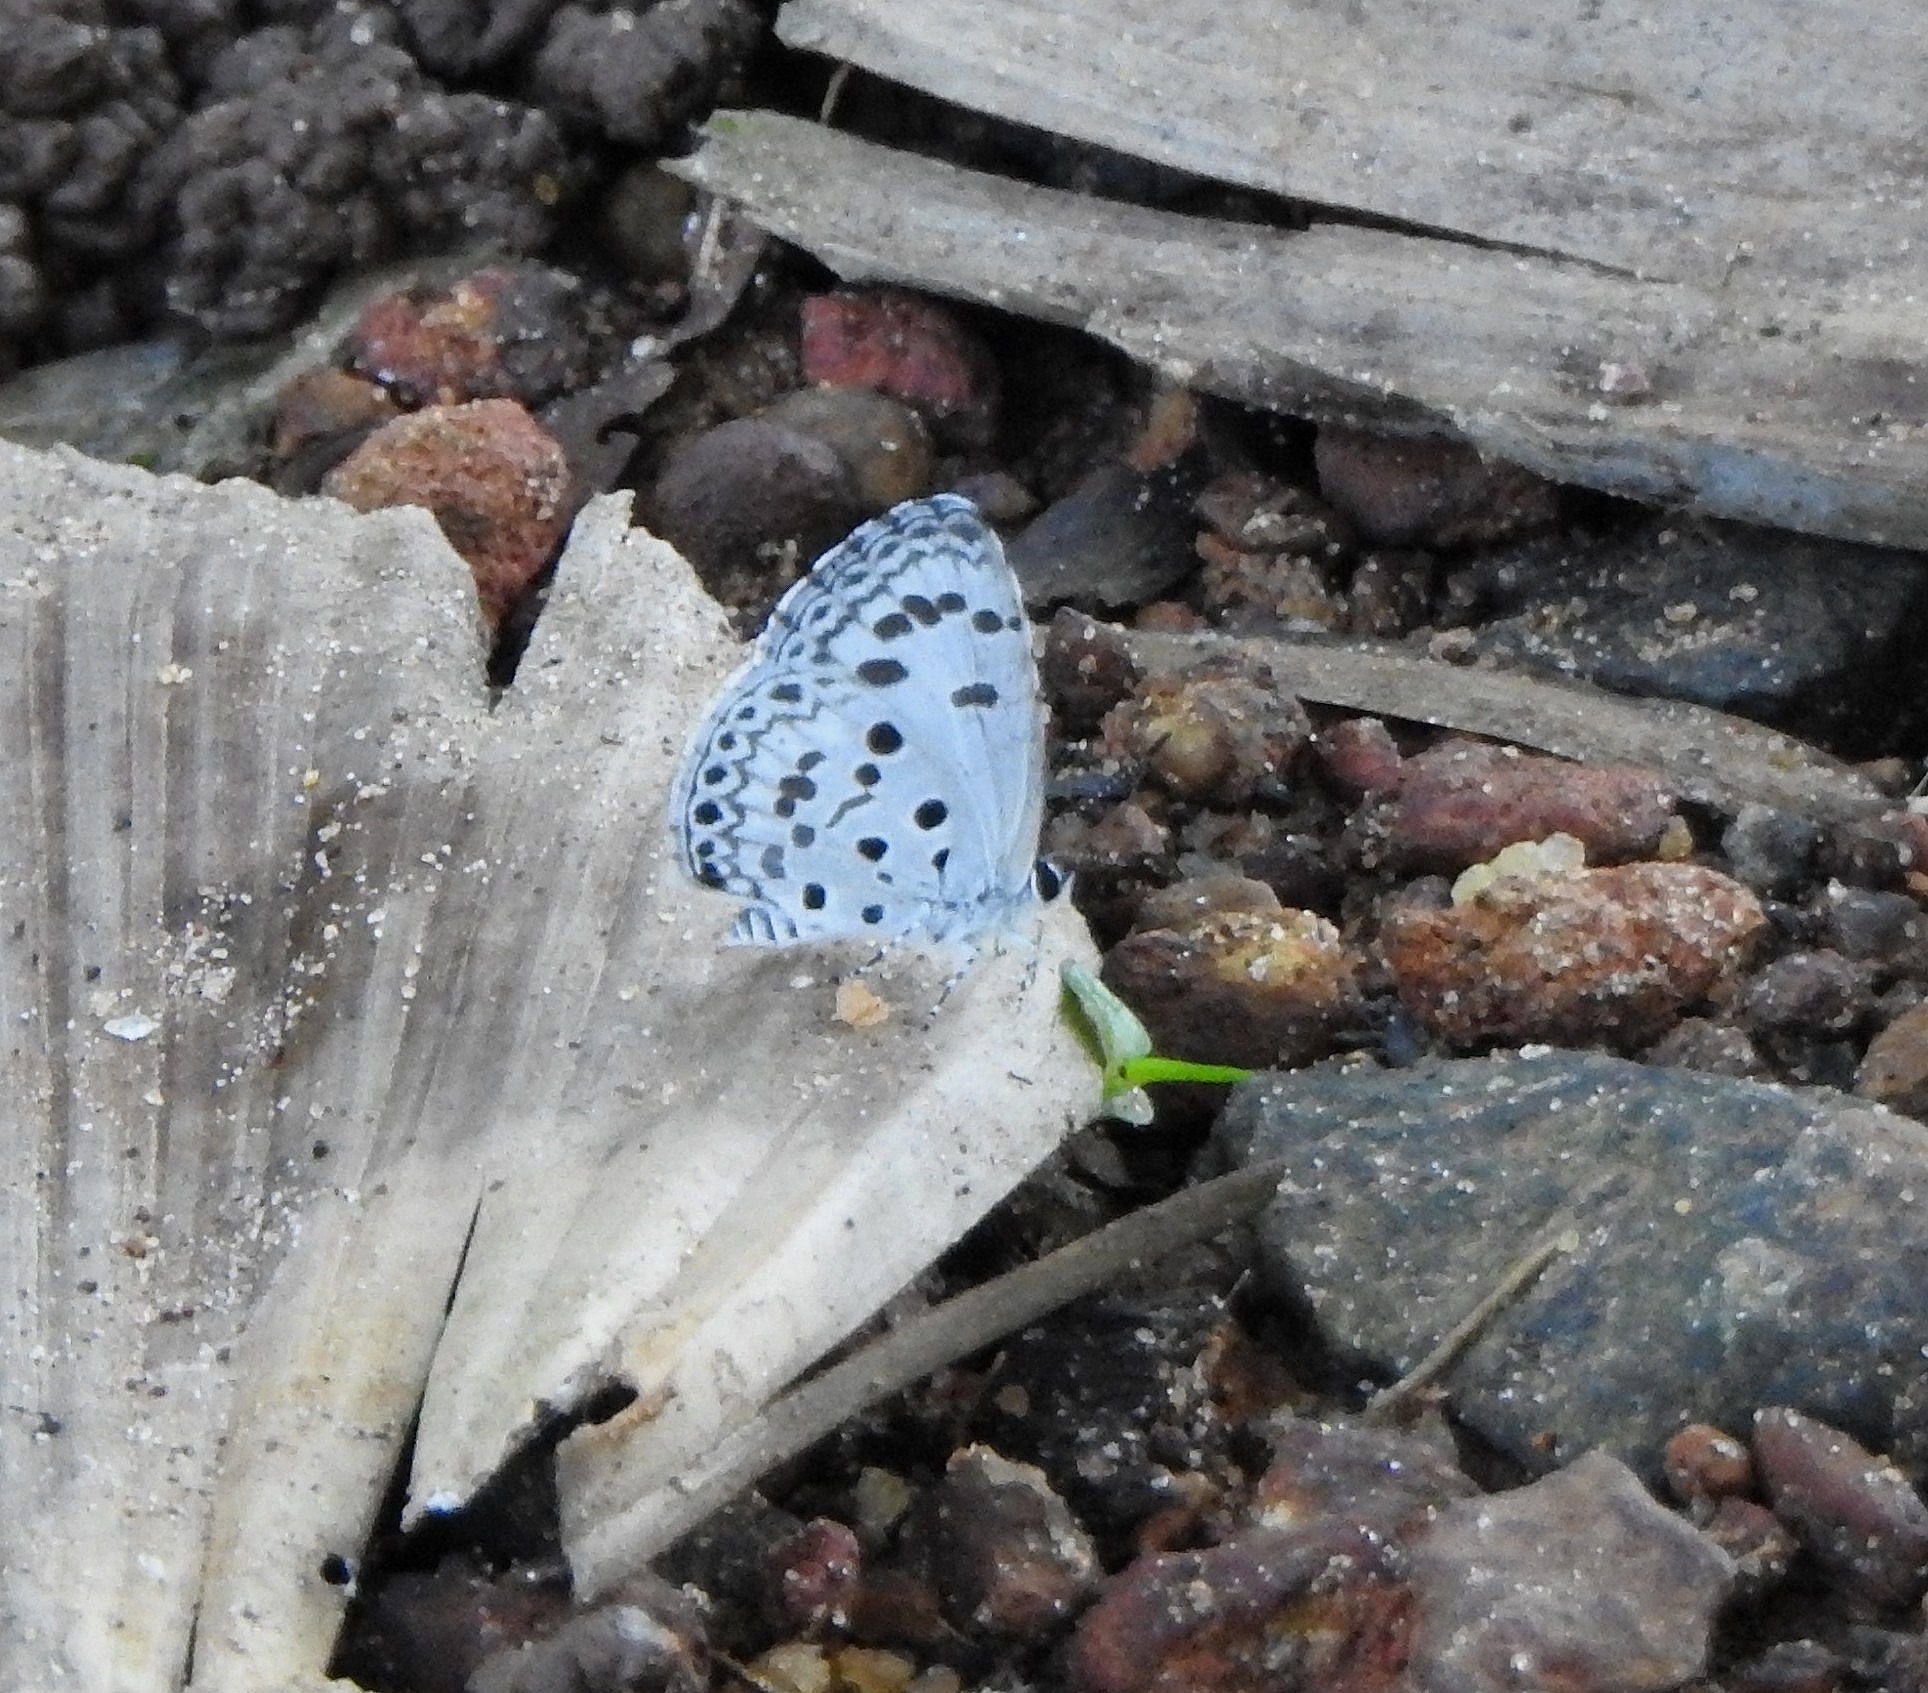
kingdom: Animalia
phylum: Arthropoda
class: Insecta
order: Lepidoptera
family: Lycaenidae
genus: Acytolepis
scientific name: Acytolepis puspa
